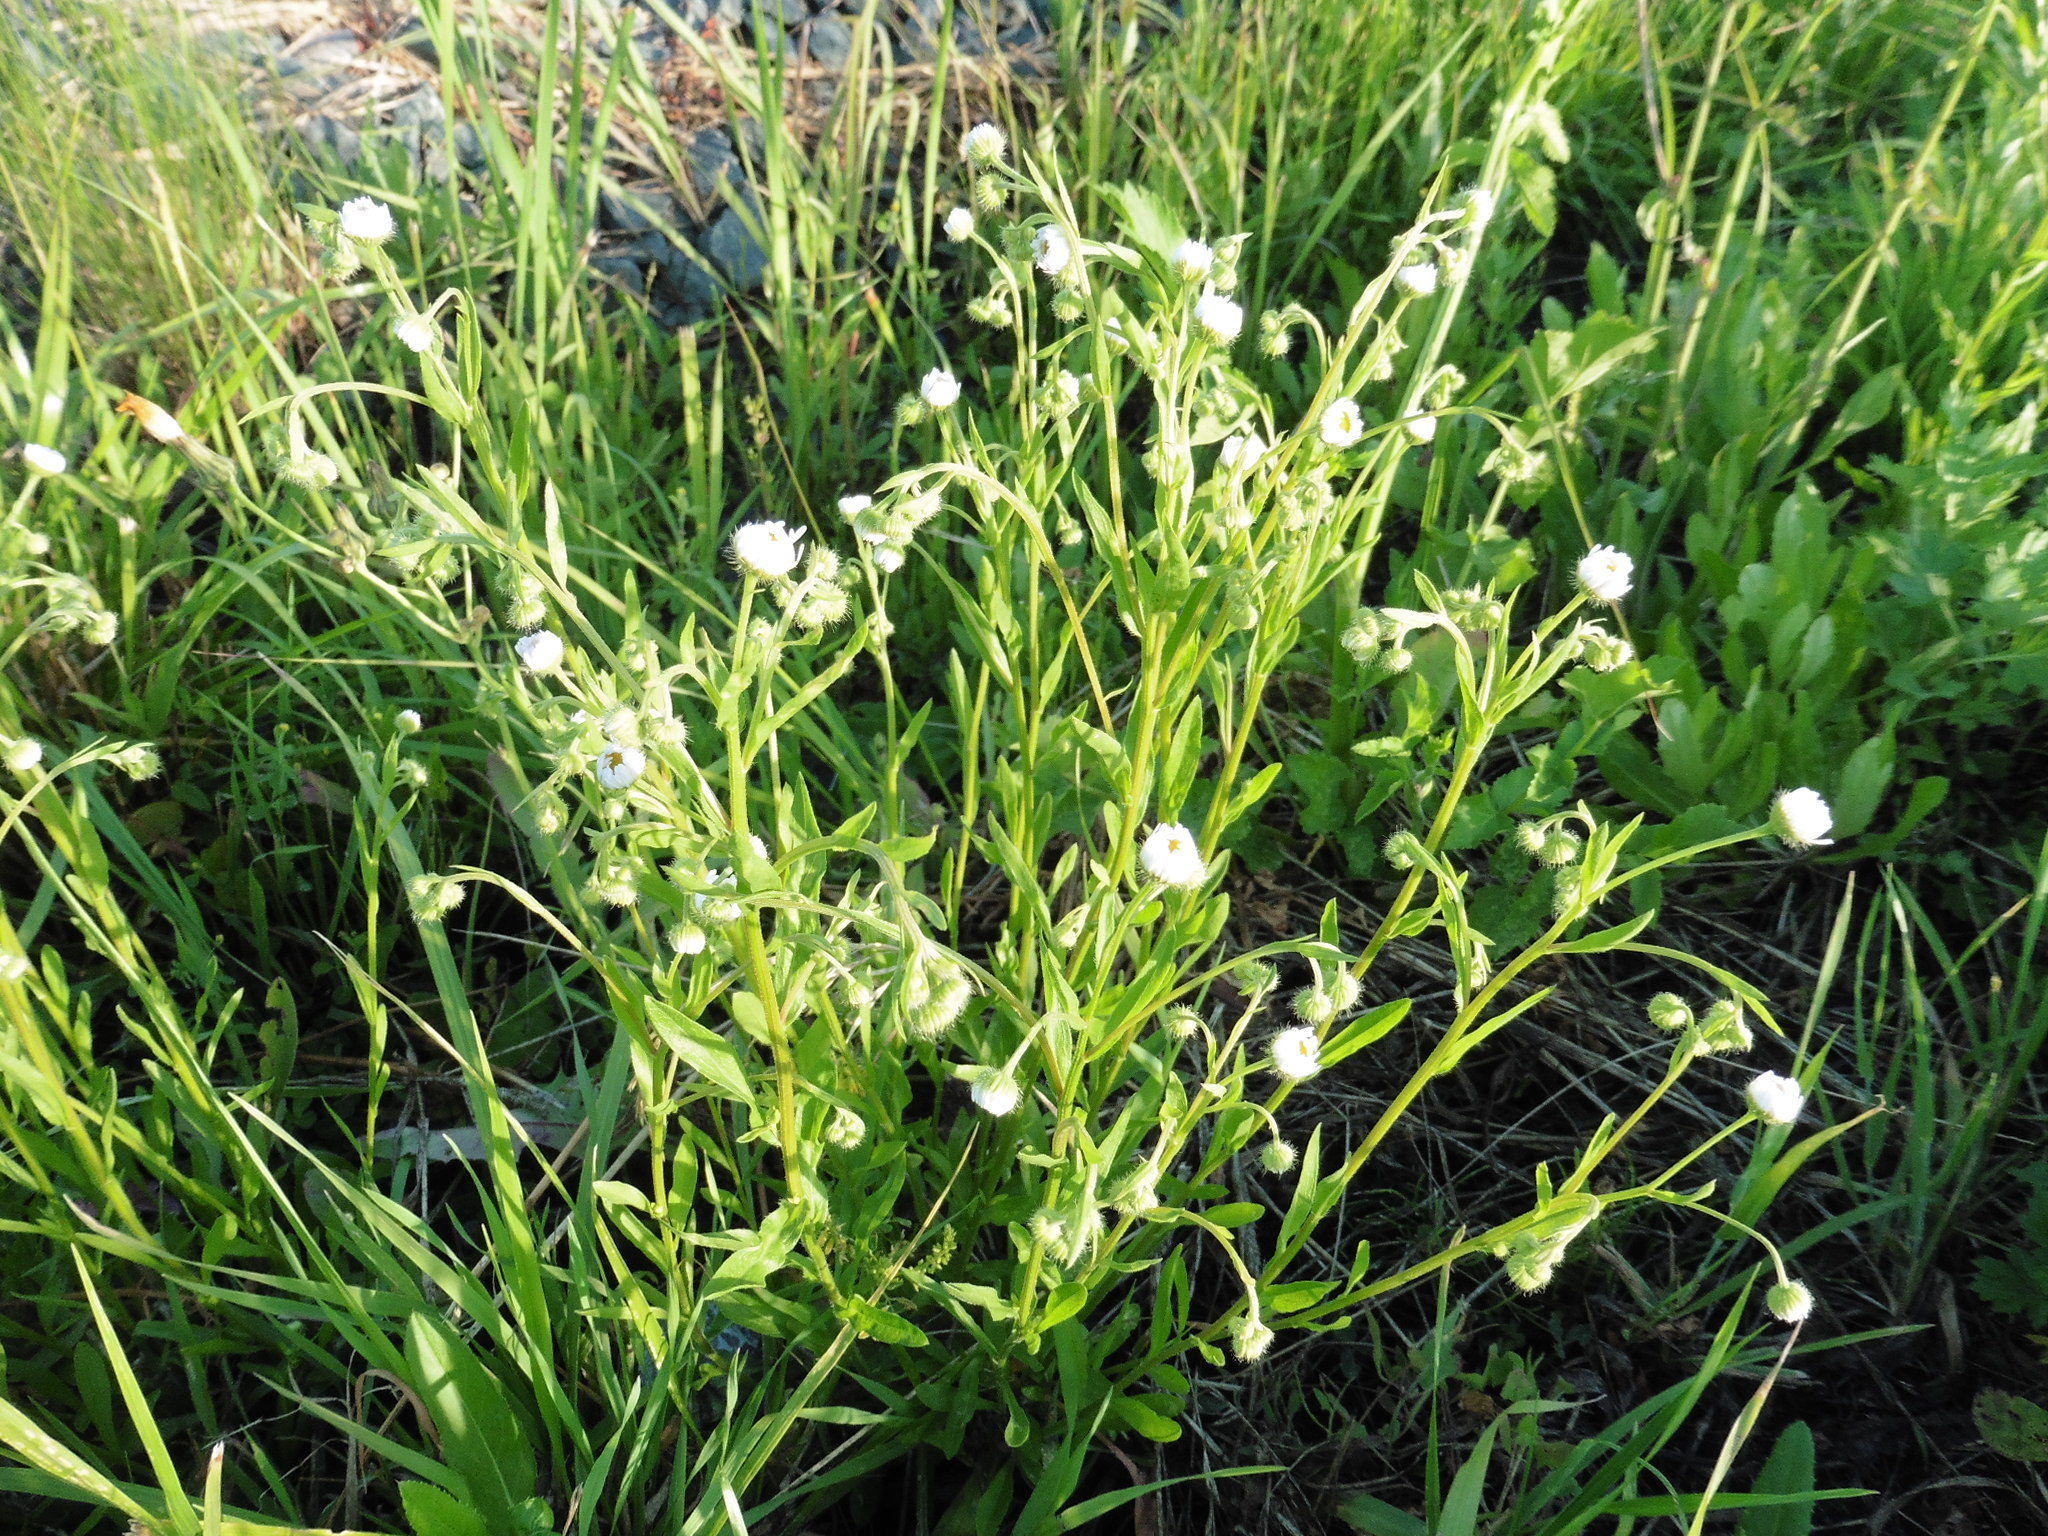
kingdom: Plantae
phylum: Tracheophyta
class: Magnoliopsida
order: Asterales
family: Asteraceae
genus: Erigeron
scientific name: Erigeron annuus
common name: Tall fleabane
